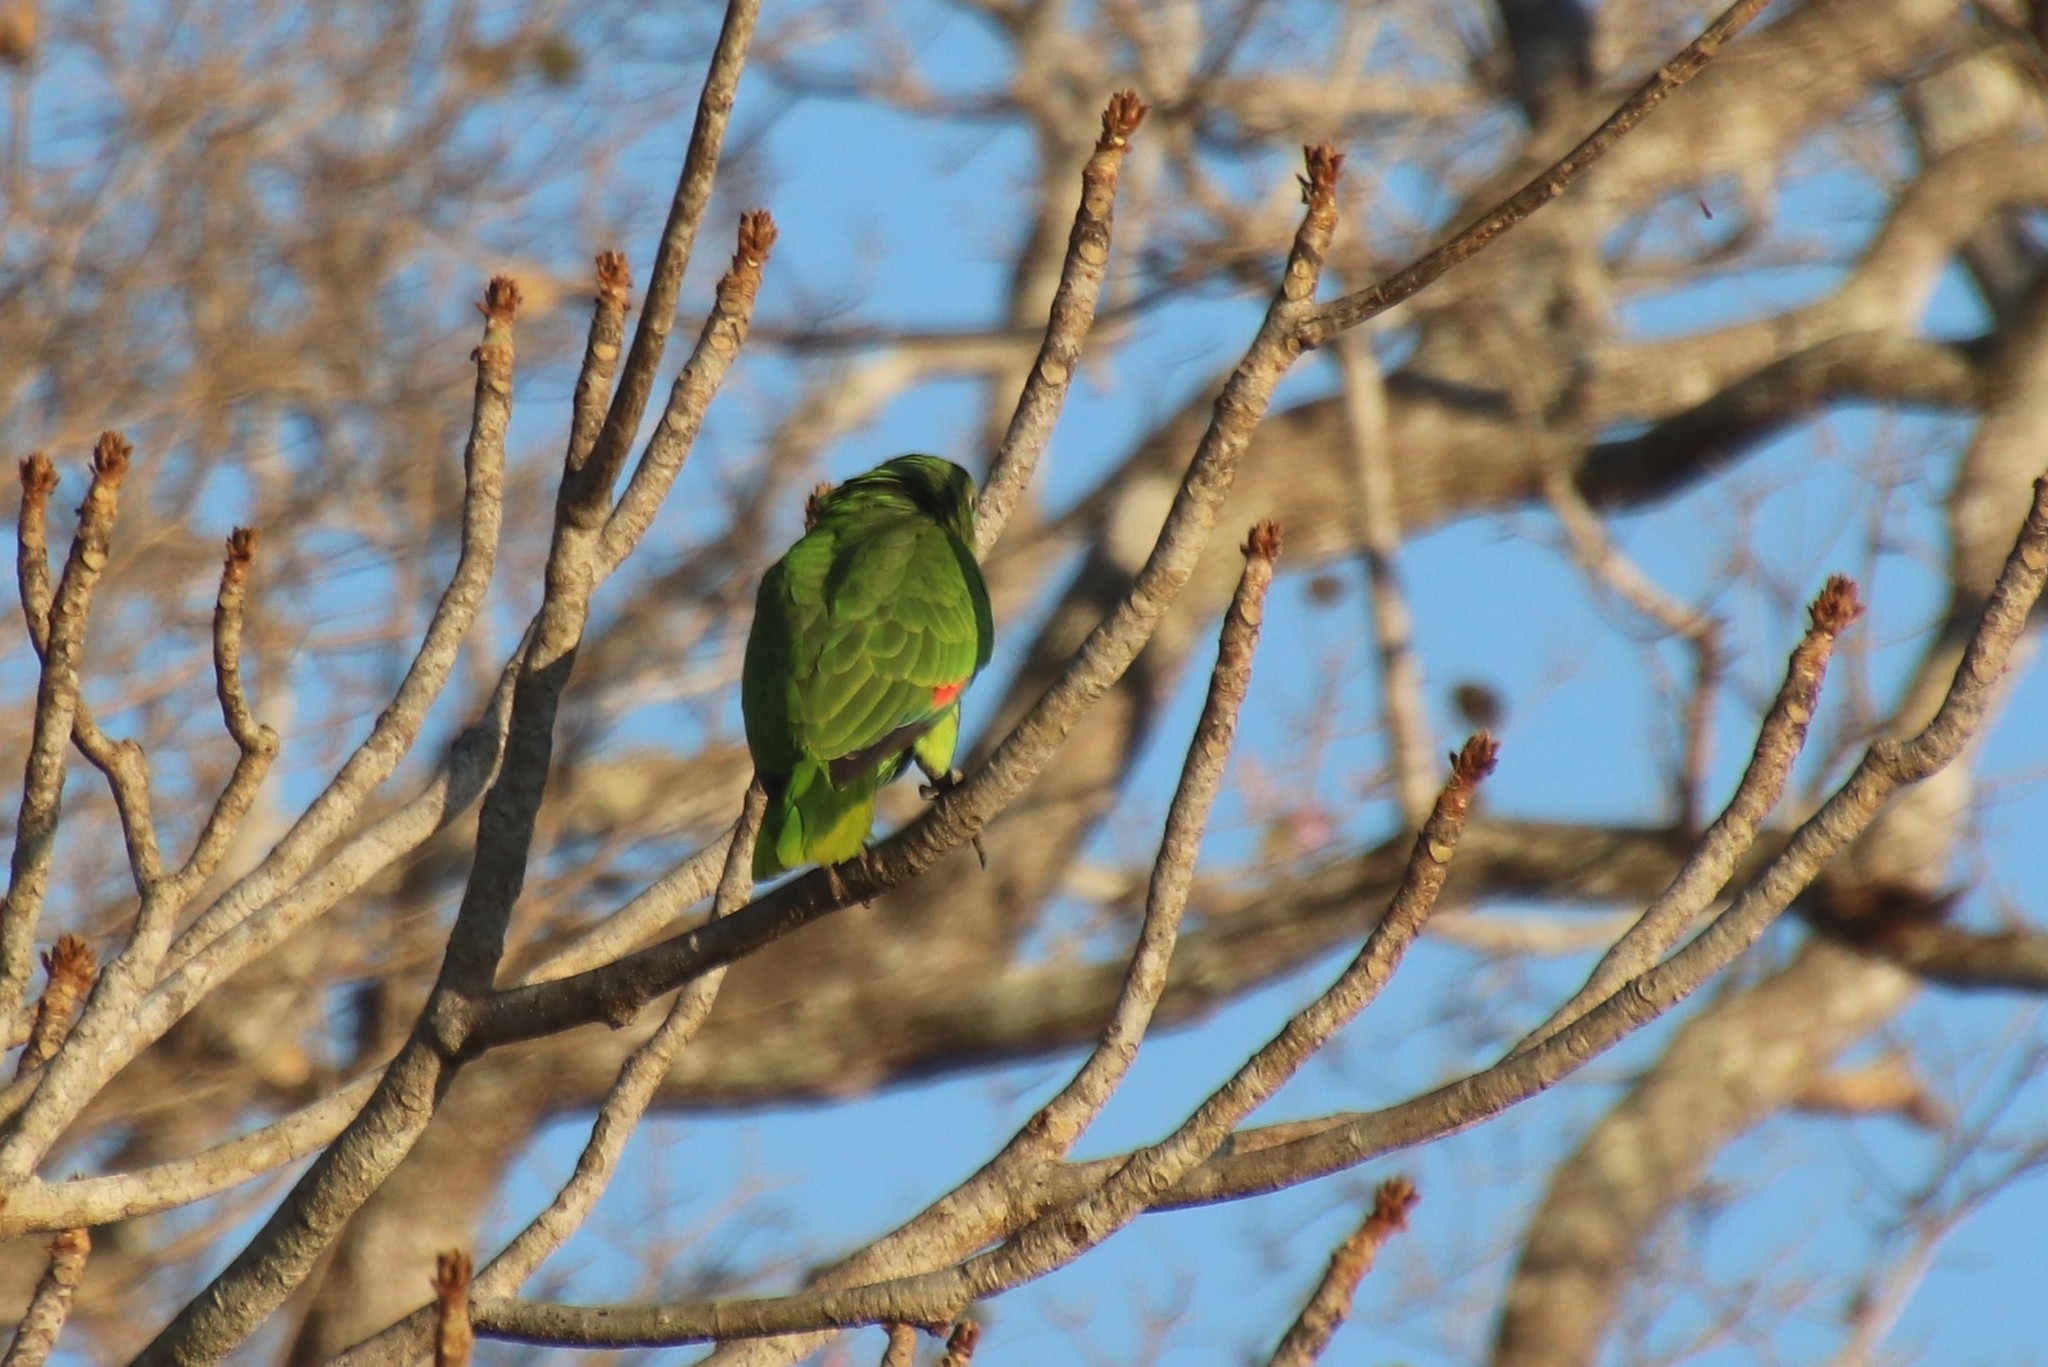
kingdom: Animalia
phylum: Chordata
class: Aves
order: Psittaciformes
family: Psittacidae
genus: Amazona
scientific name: Amazona aestiva
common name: Turquoise-fronted amazon
